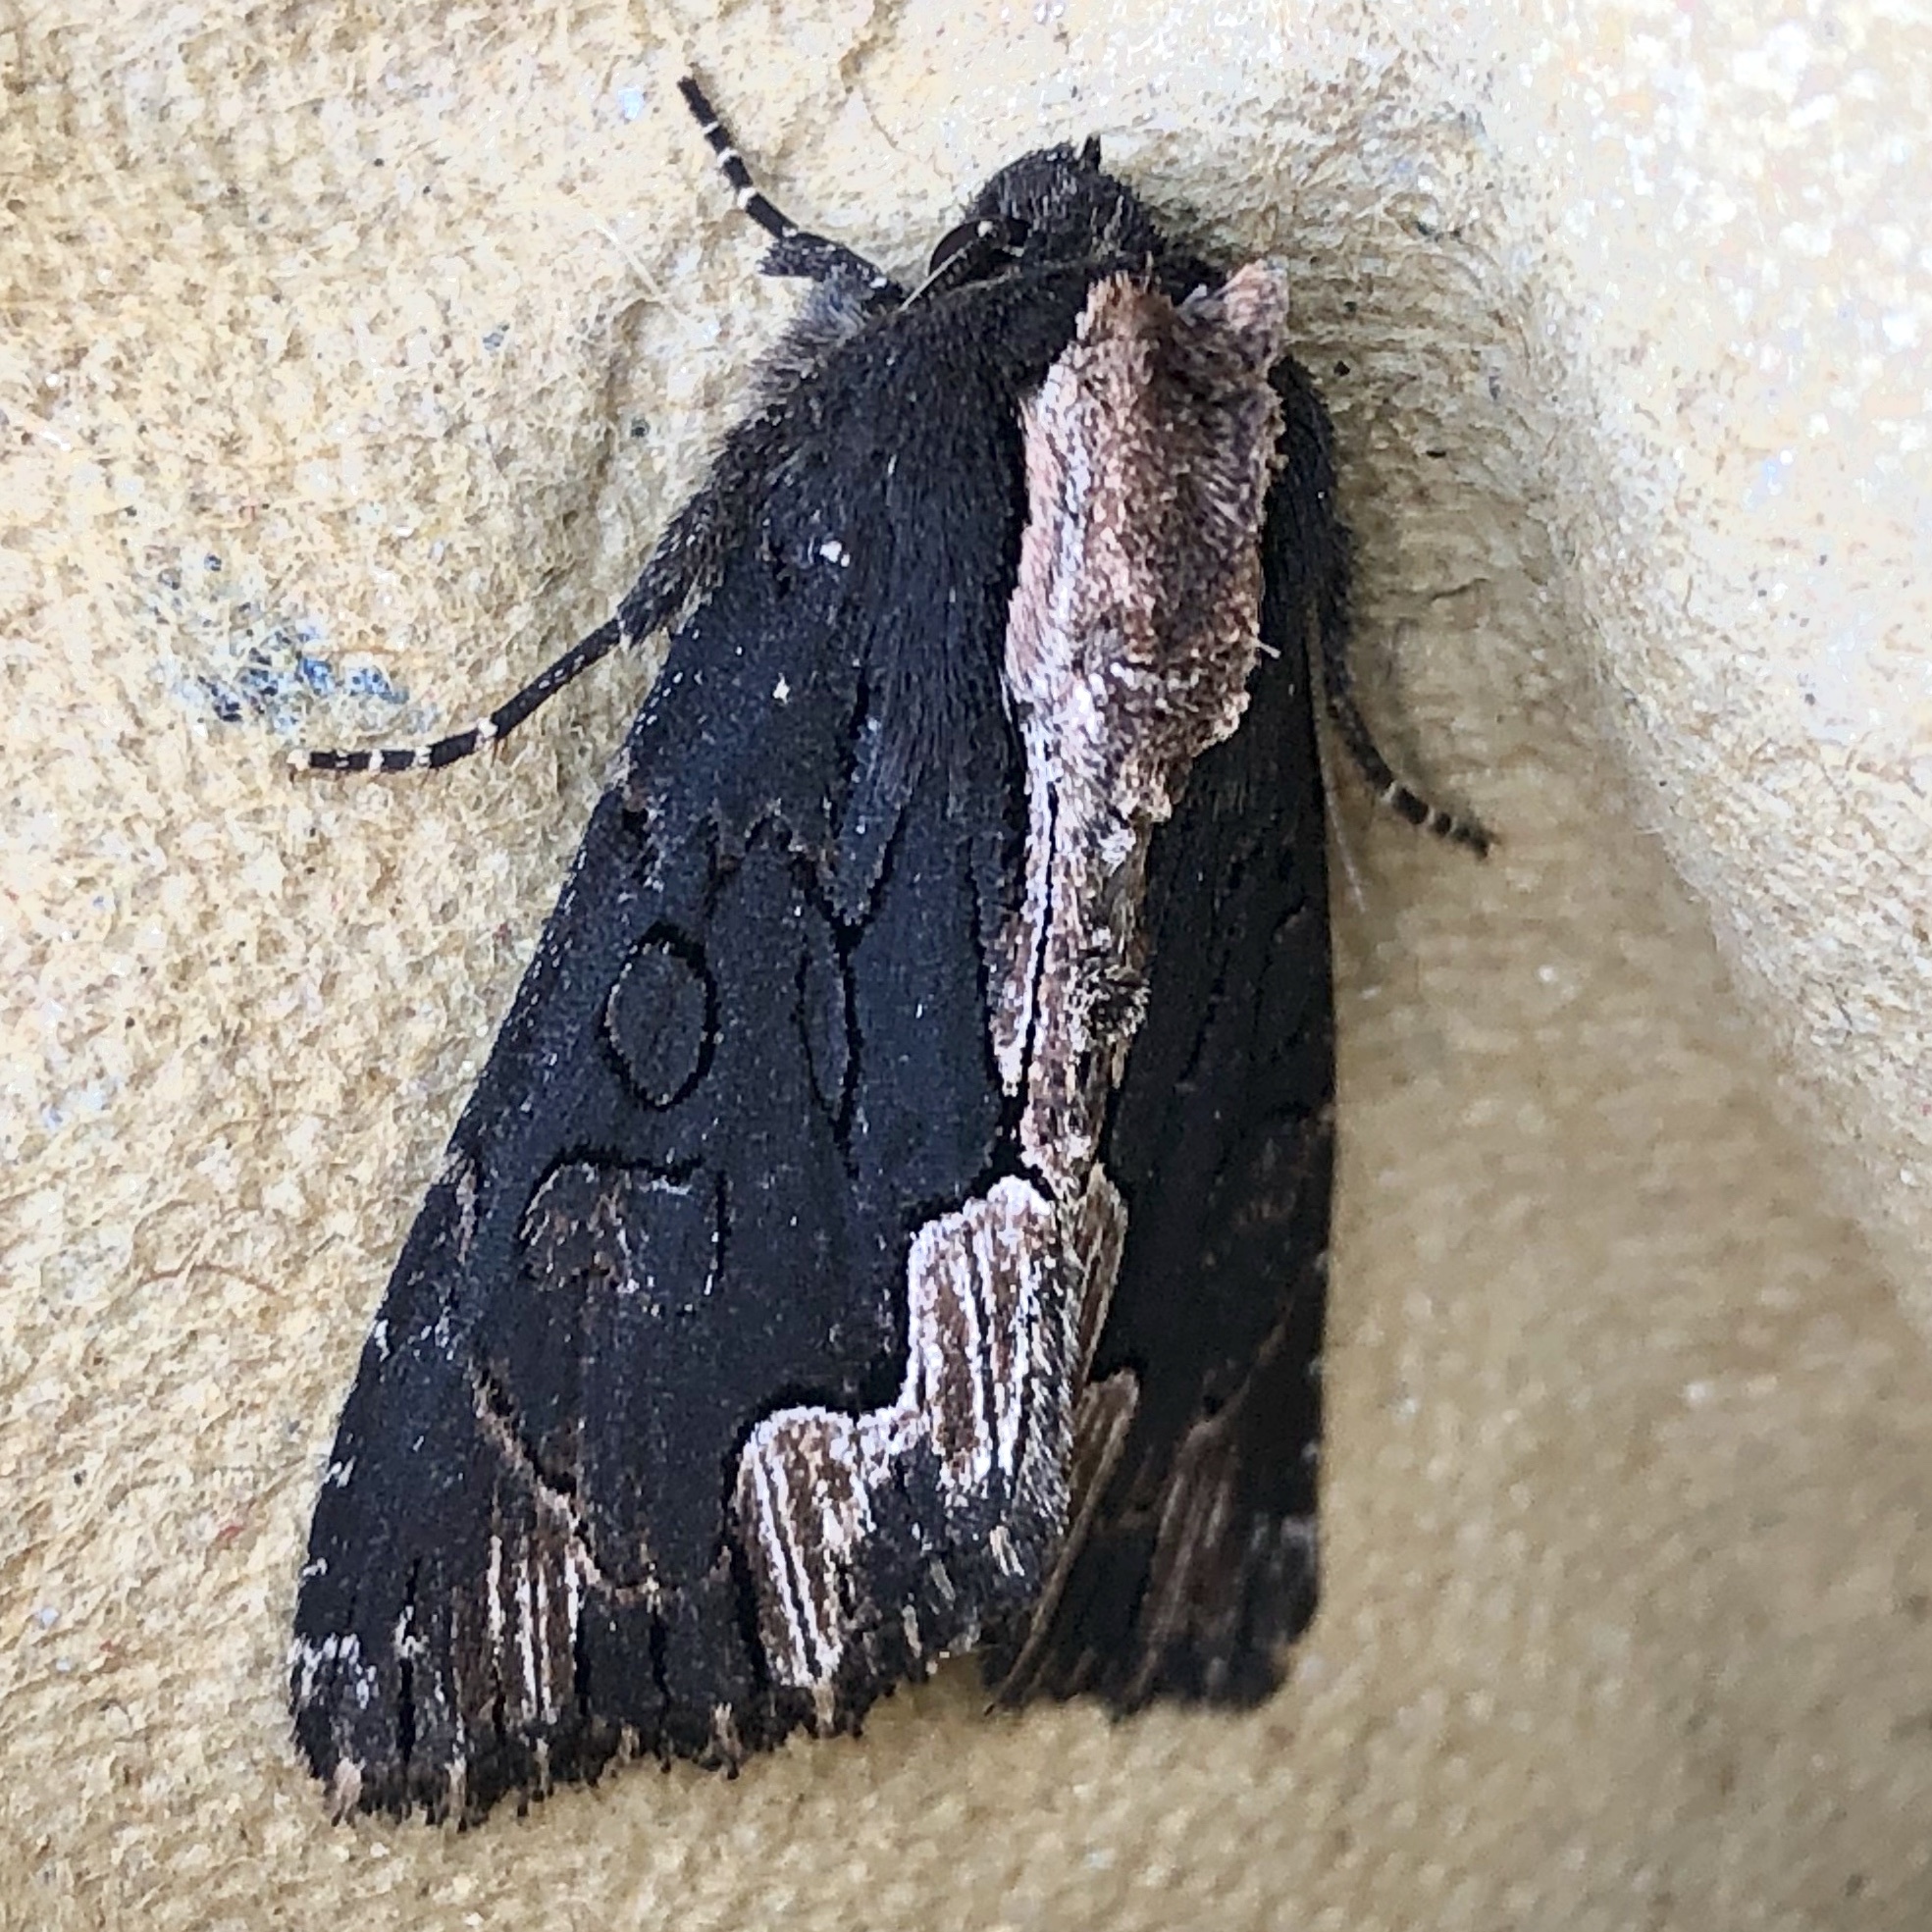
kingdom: Animalia
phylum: Arthropoda
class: Insecta
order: Lepidoptera
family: Noctuidae
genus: Dypterygia
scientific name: Dypterygia scabriuscula
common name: Bird's wing
